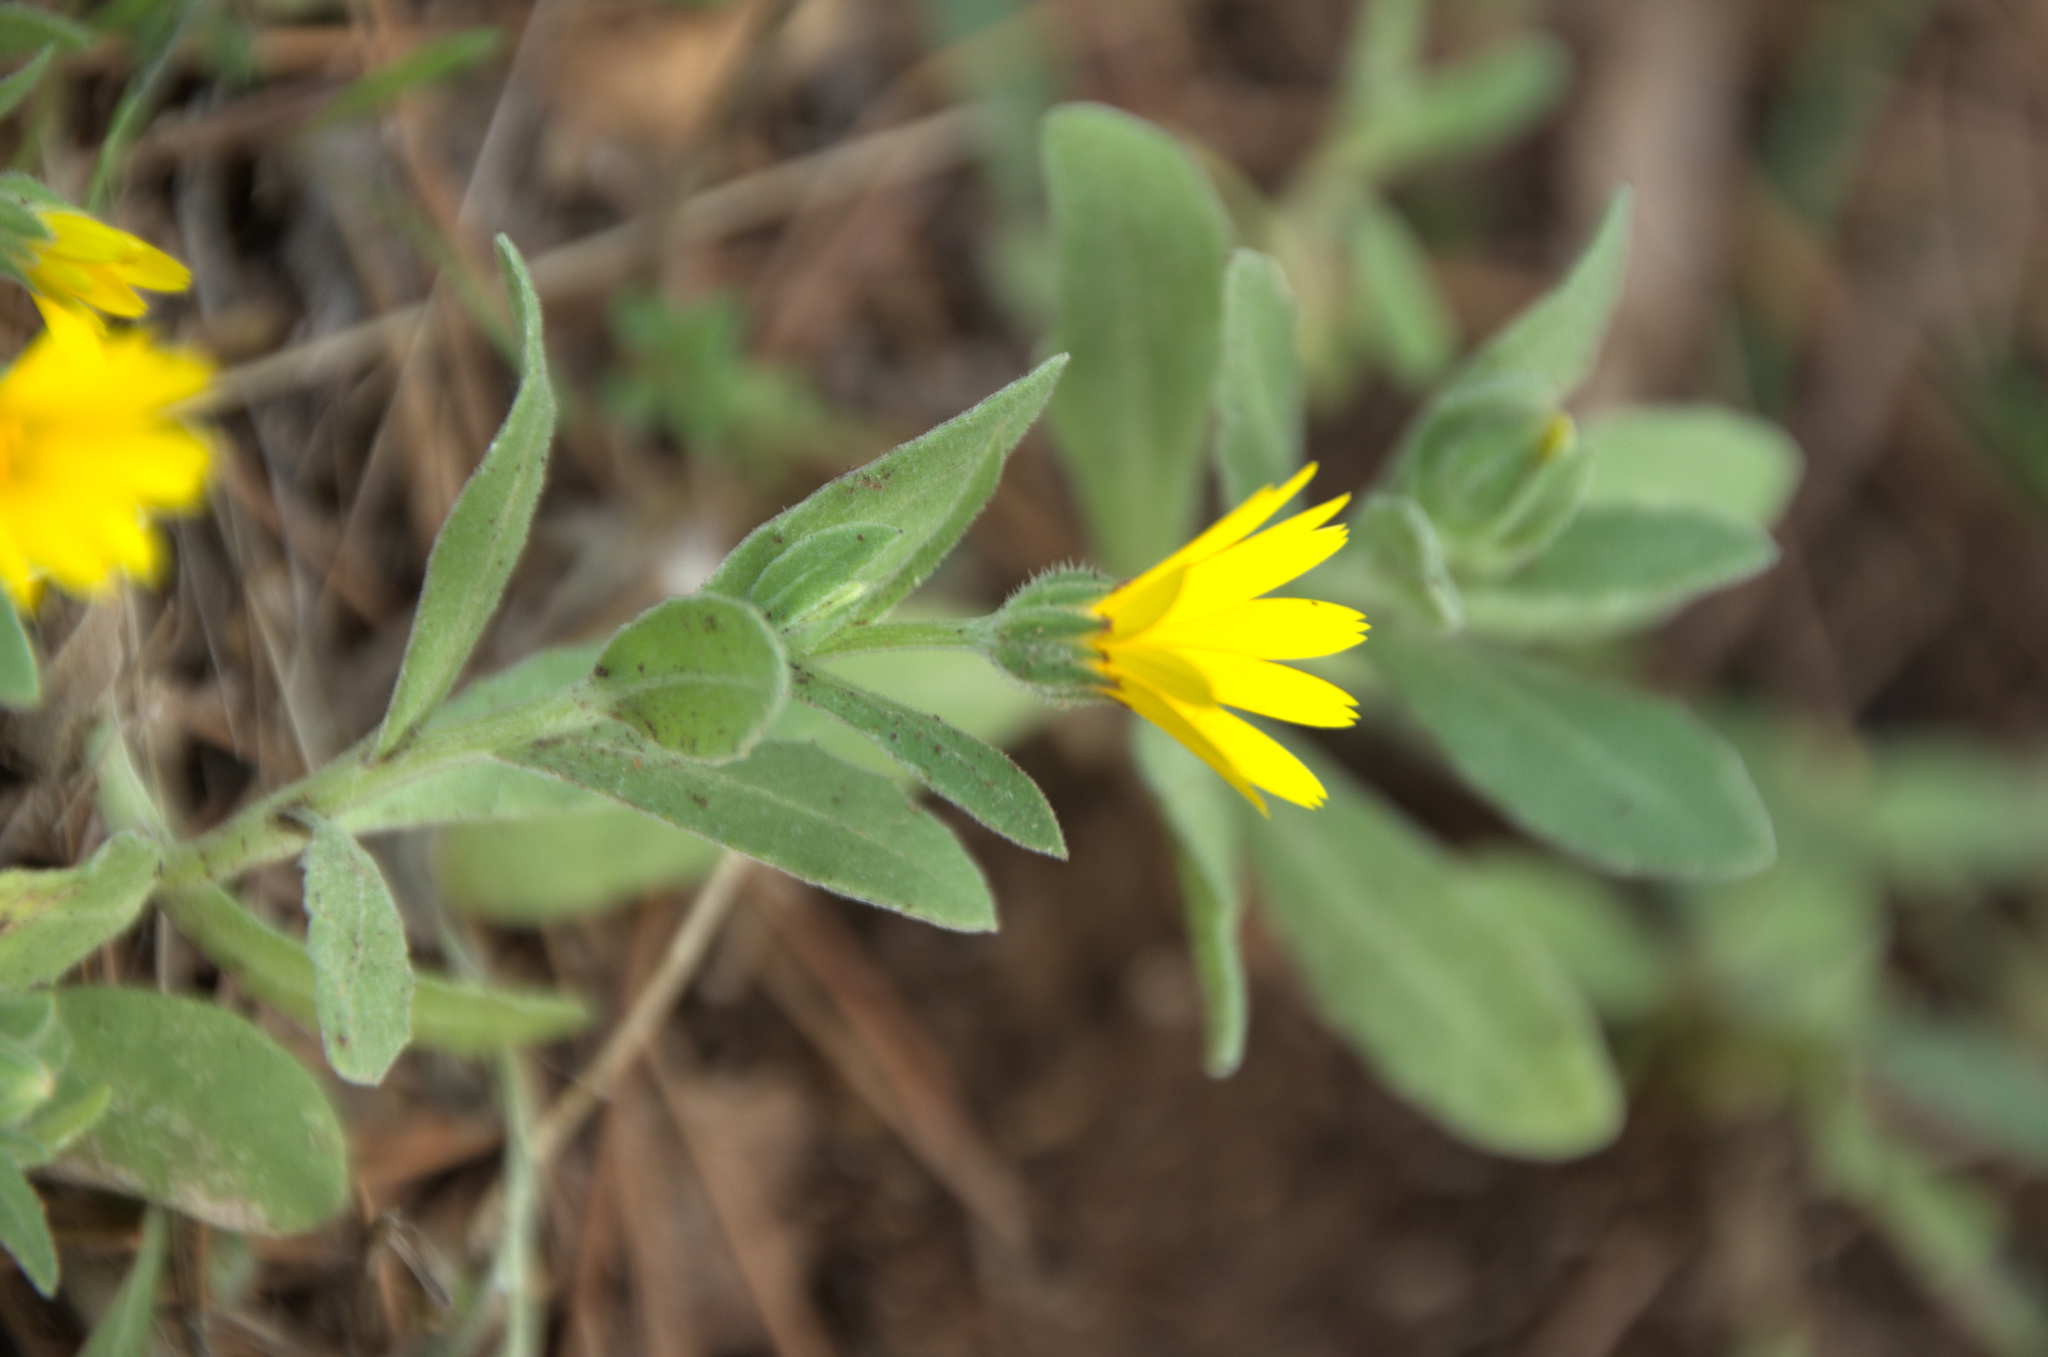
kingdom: Plantae
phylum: Tracheophyta
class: Magnoliopsida
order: Asterales
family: Asteraceae
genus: Calendula
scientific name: Calendula arvensis
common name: Field marigold
